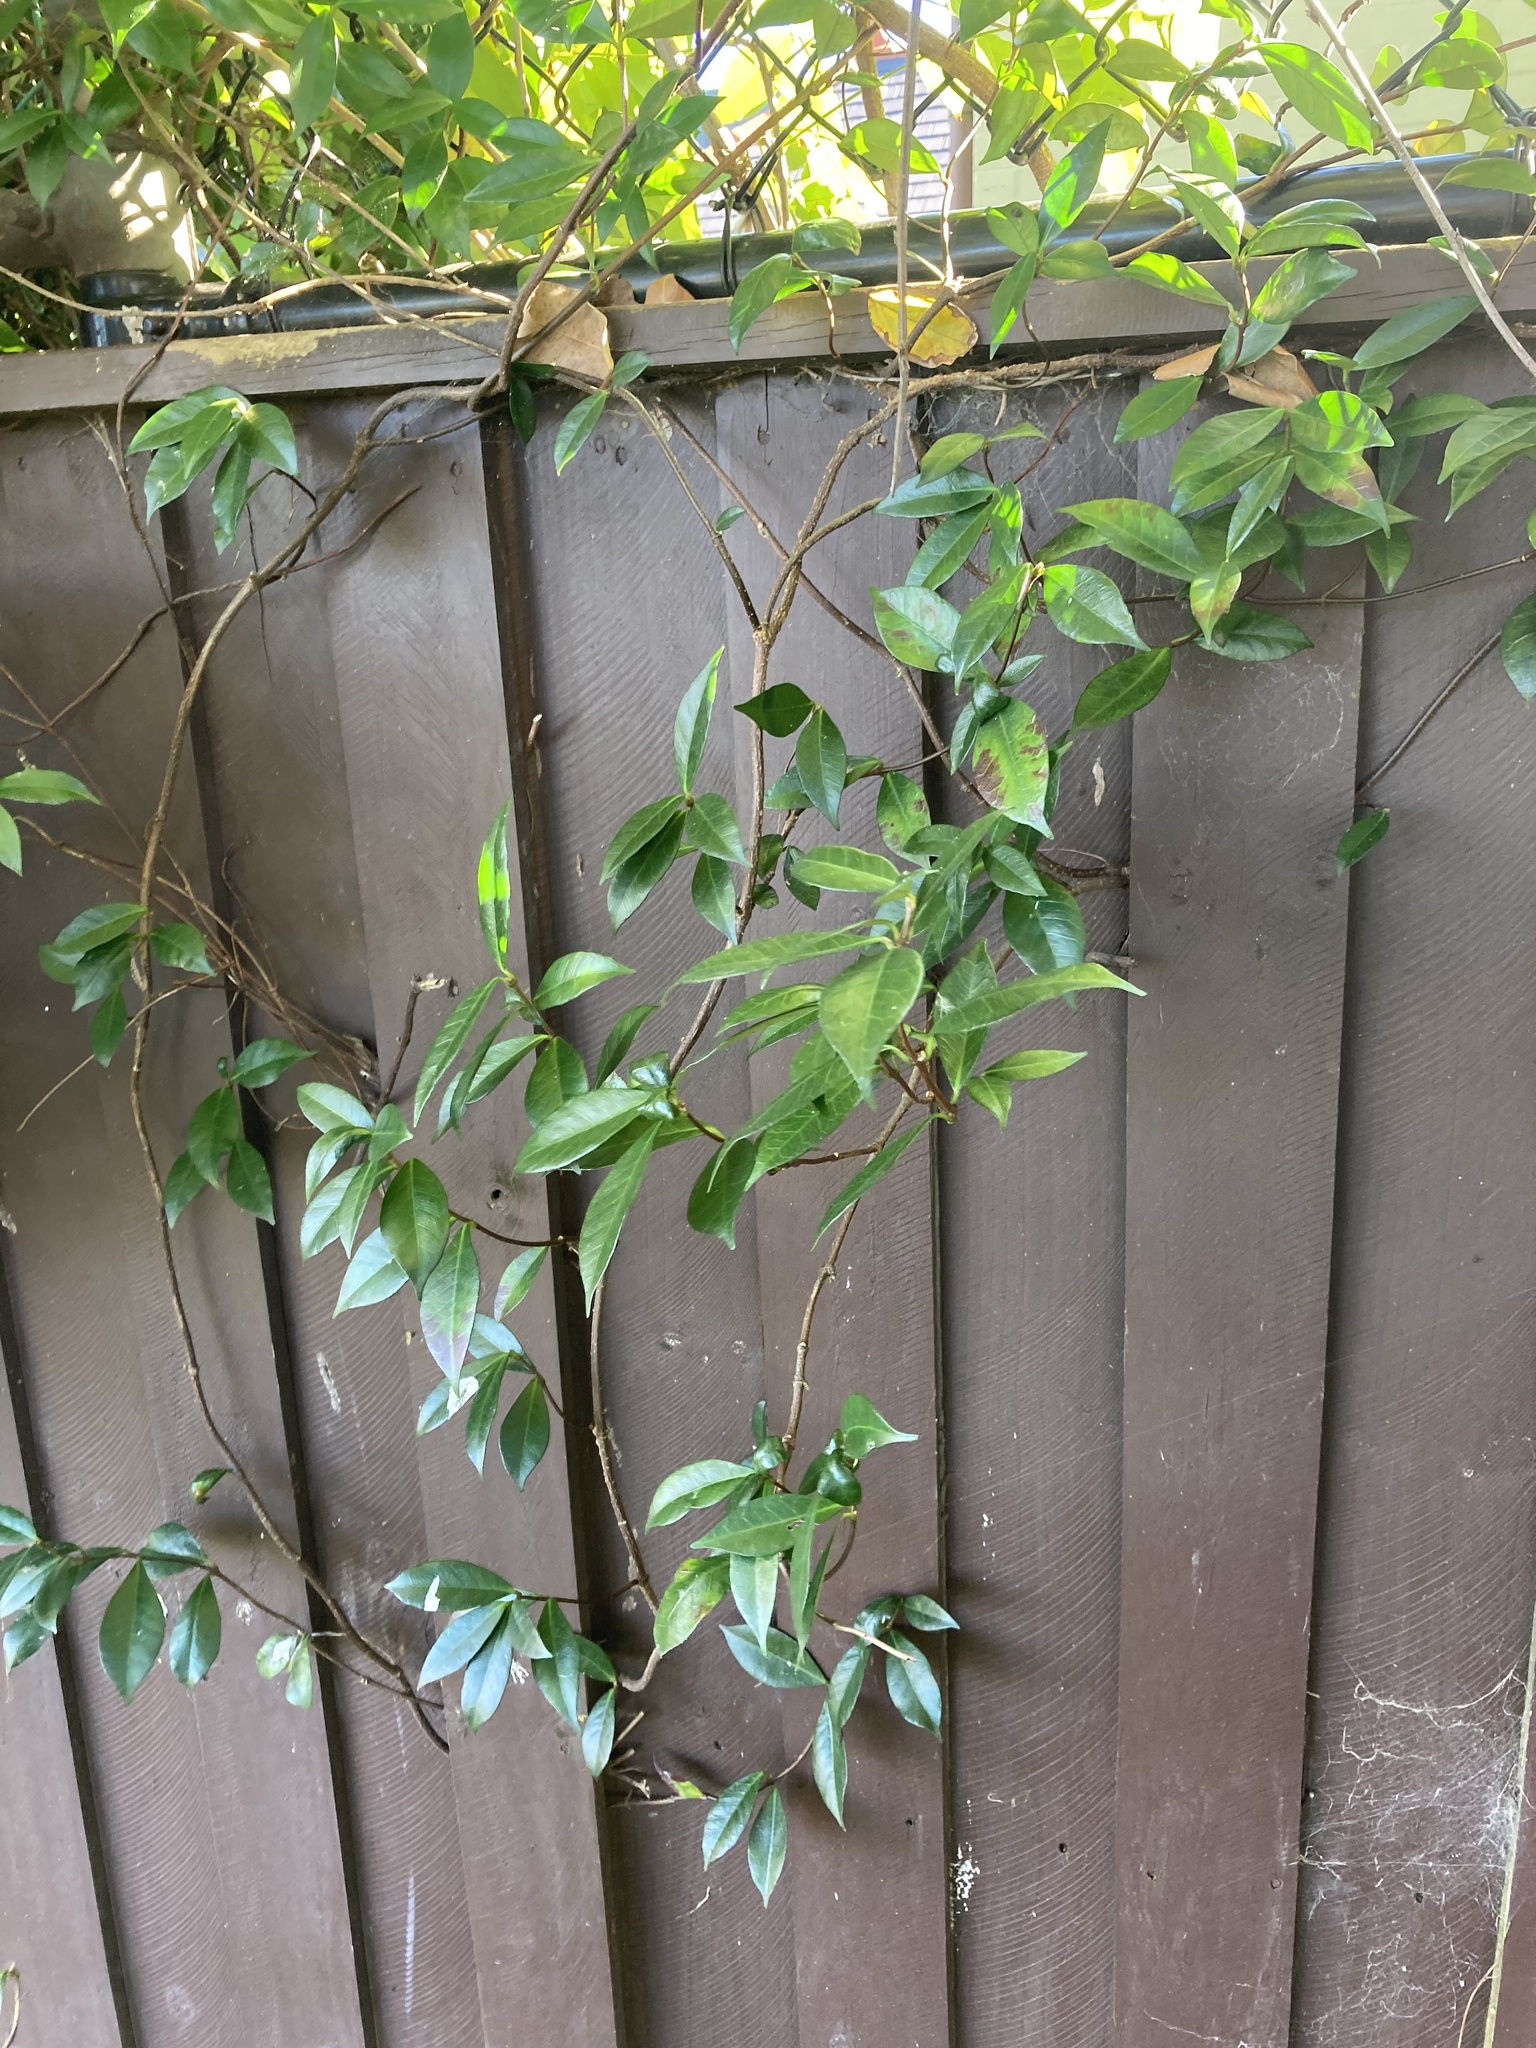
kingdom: Plantae
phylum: Tracheophyta
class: Magnoliopsida
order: Gentianales
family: Apocynaceae
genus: Trachelospermum
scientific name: Trachelospermum jasminoides
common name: Confederate jasmine
